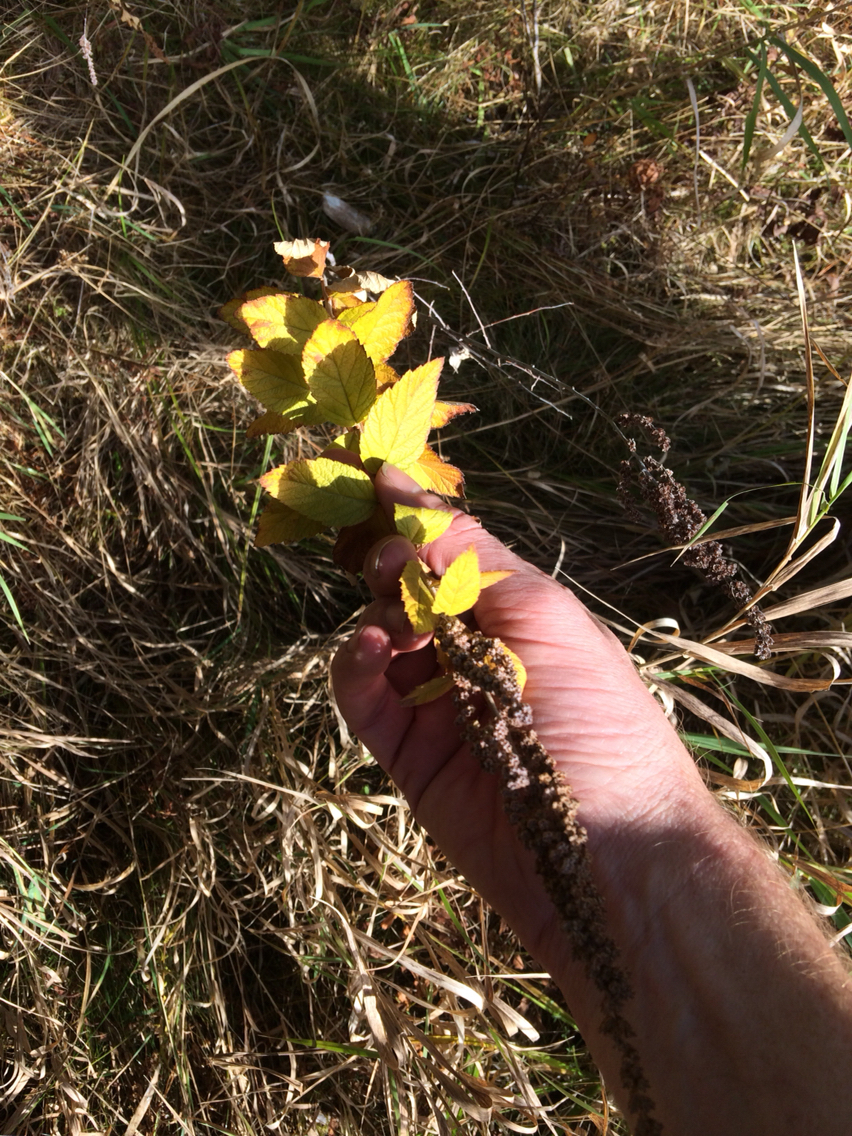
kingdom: Plantae
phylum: Tracheophyta
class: Magnoliopsida
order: Rosales
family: Rosaceae
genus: Spiraea
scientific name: Spiraea tomentosa
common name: Hardhack
